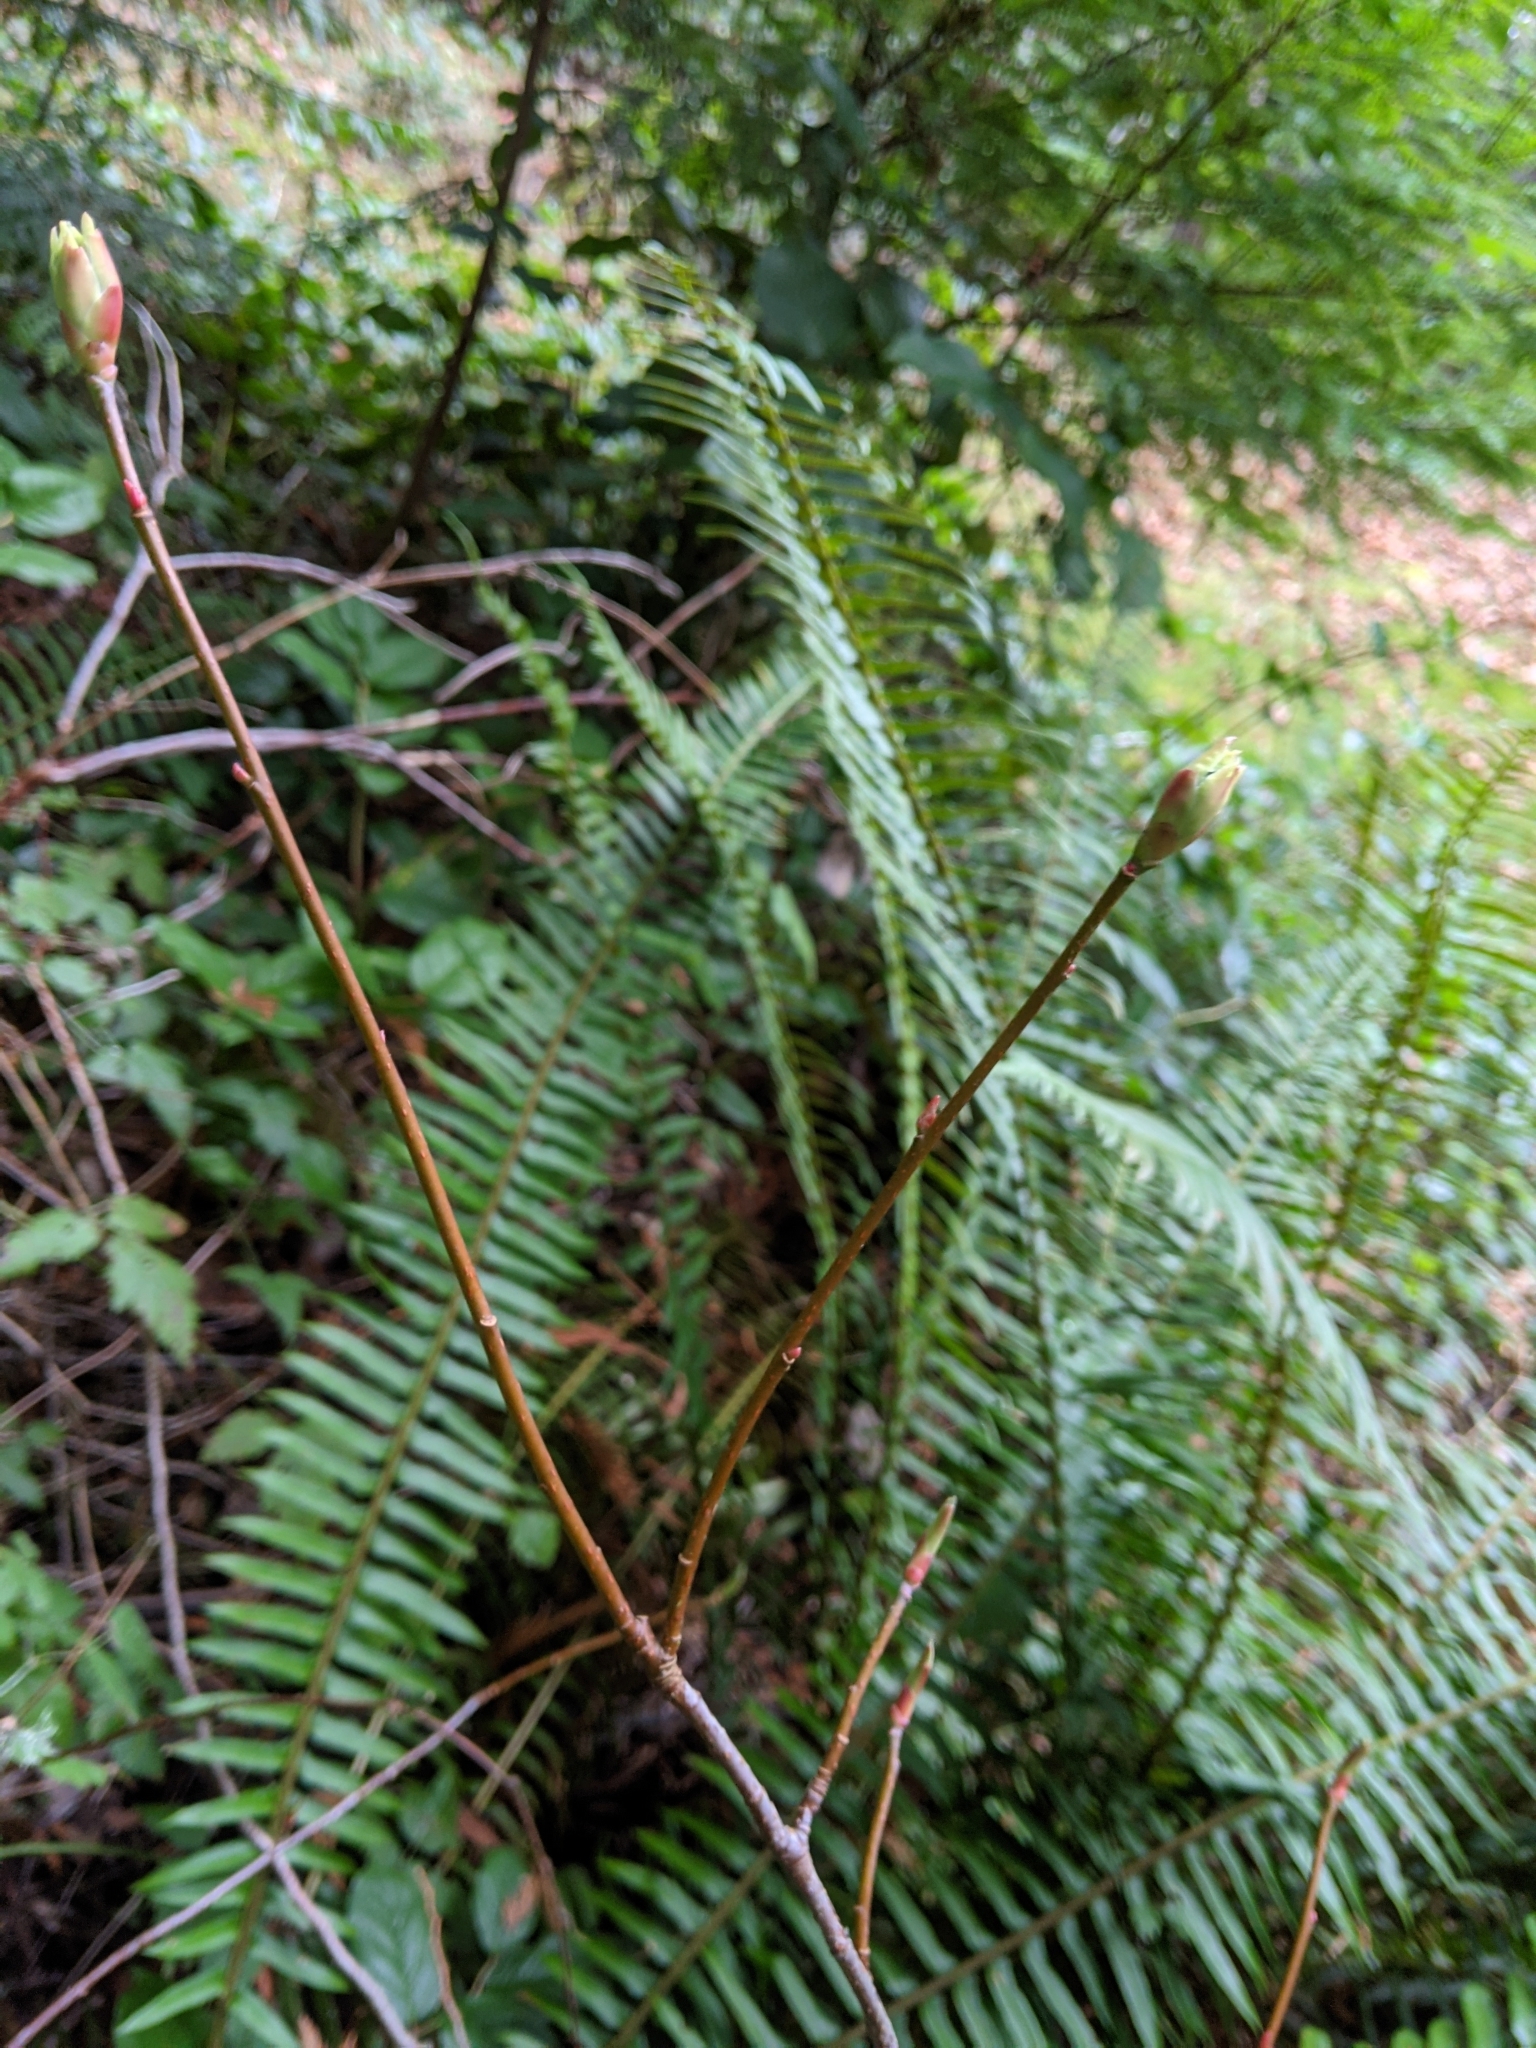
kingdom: Plantae
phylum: Tracheophyta
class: Magnoliopsida
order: Rosales
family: Rosaceae
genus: Oemleria
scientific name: Oemleria cerasiformis
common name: Osoberry
